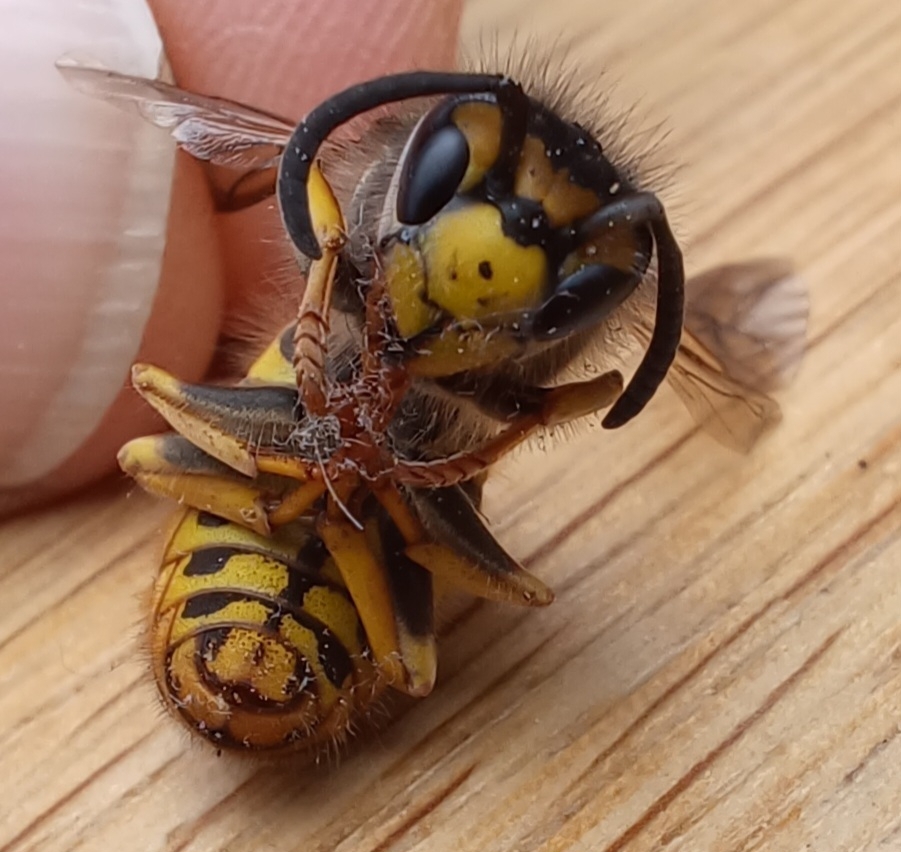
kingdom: Animalia
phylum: Arthropoda
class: Insecta
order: Hymenoptera
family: Vespidae
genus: Vespula
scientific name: Vespula germanica
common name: German wasp
